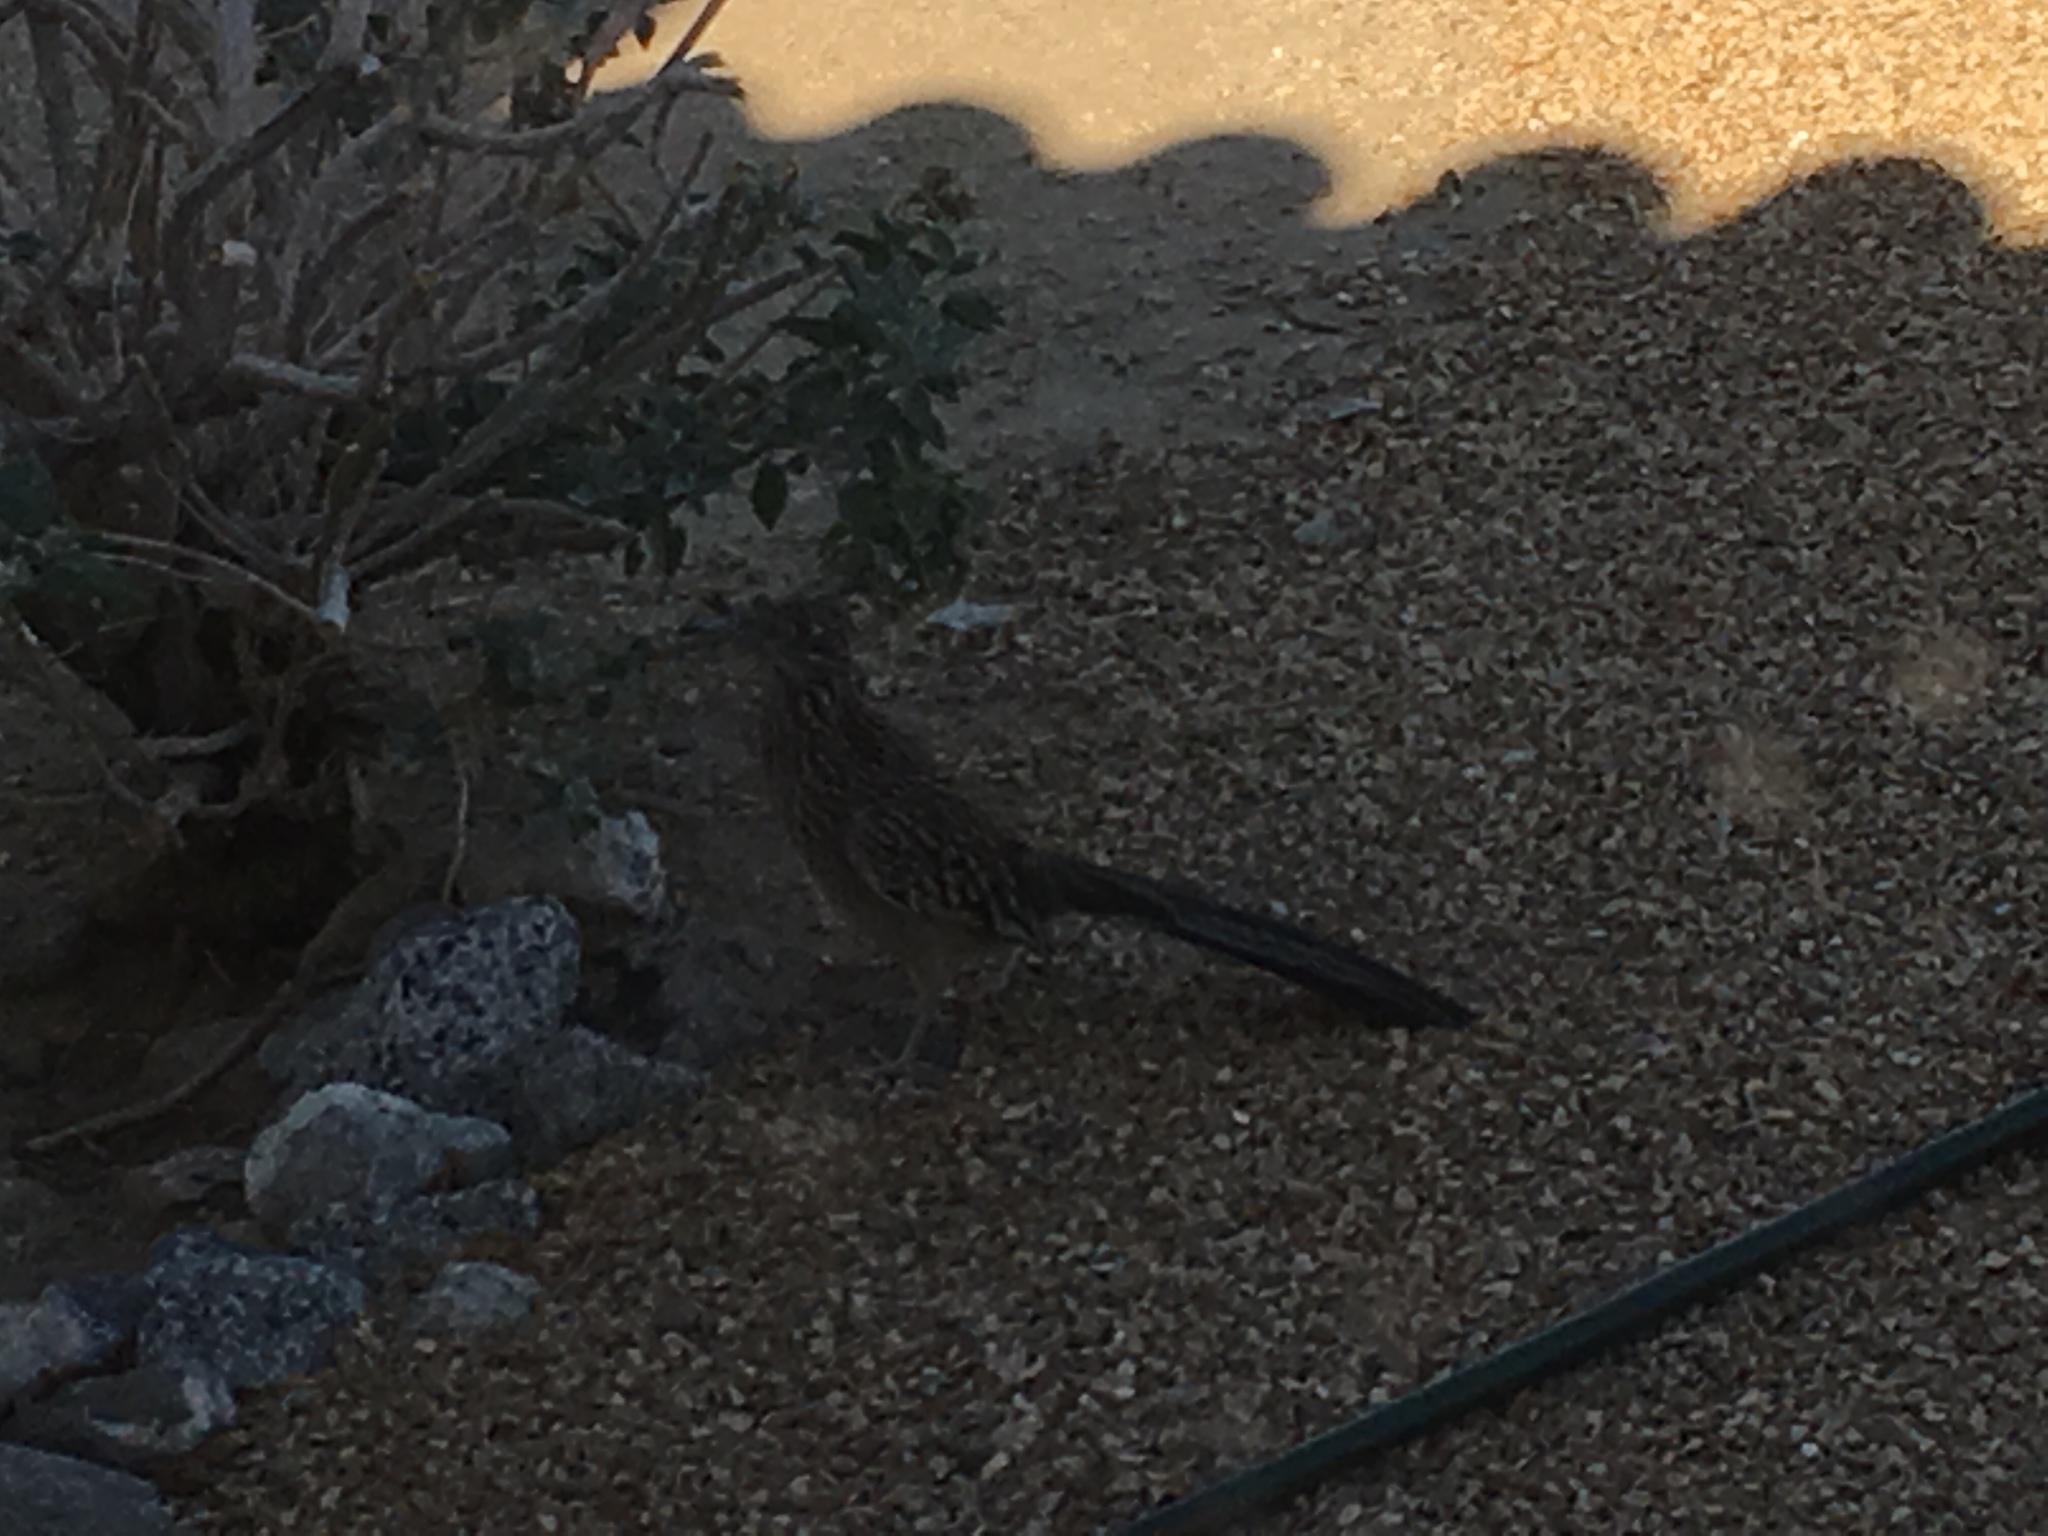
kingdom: Animalia
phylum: Chordata
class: Aves
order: Cuculiformes
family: Cuculidae
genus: Geococcyx
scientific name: Geococcyx californianus
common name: Greater roadrunner
